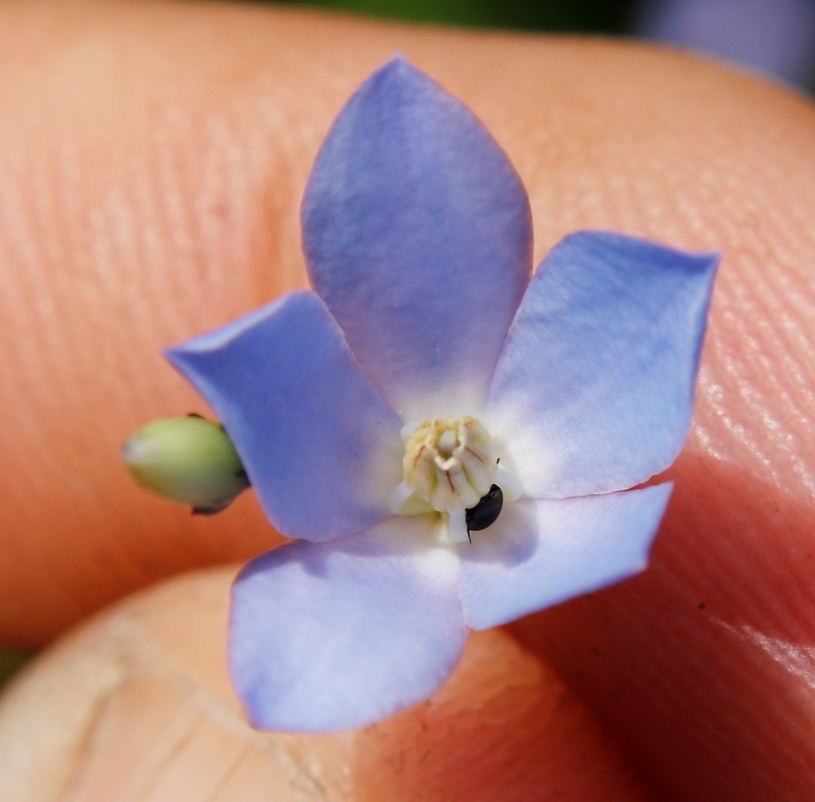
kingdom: Plantae
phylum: Tracheophyta
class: Magnoliopsida
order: Apiales
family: Pittosporaceae
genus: Billardiera
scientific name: Billardiera heterophylla
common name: Bluebell creeper
